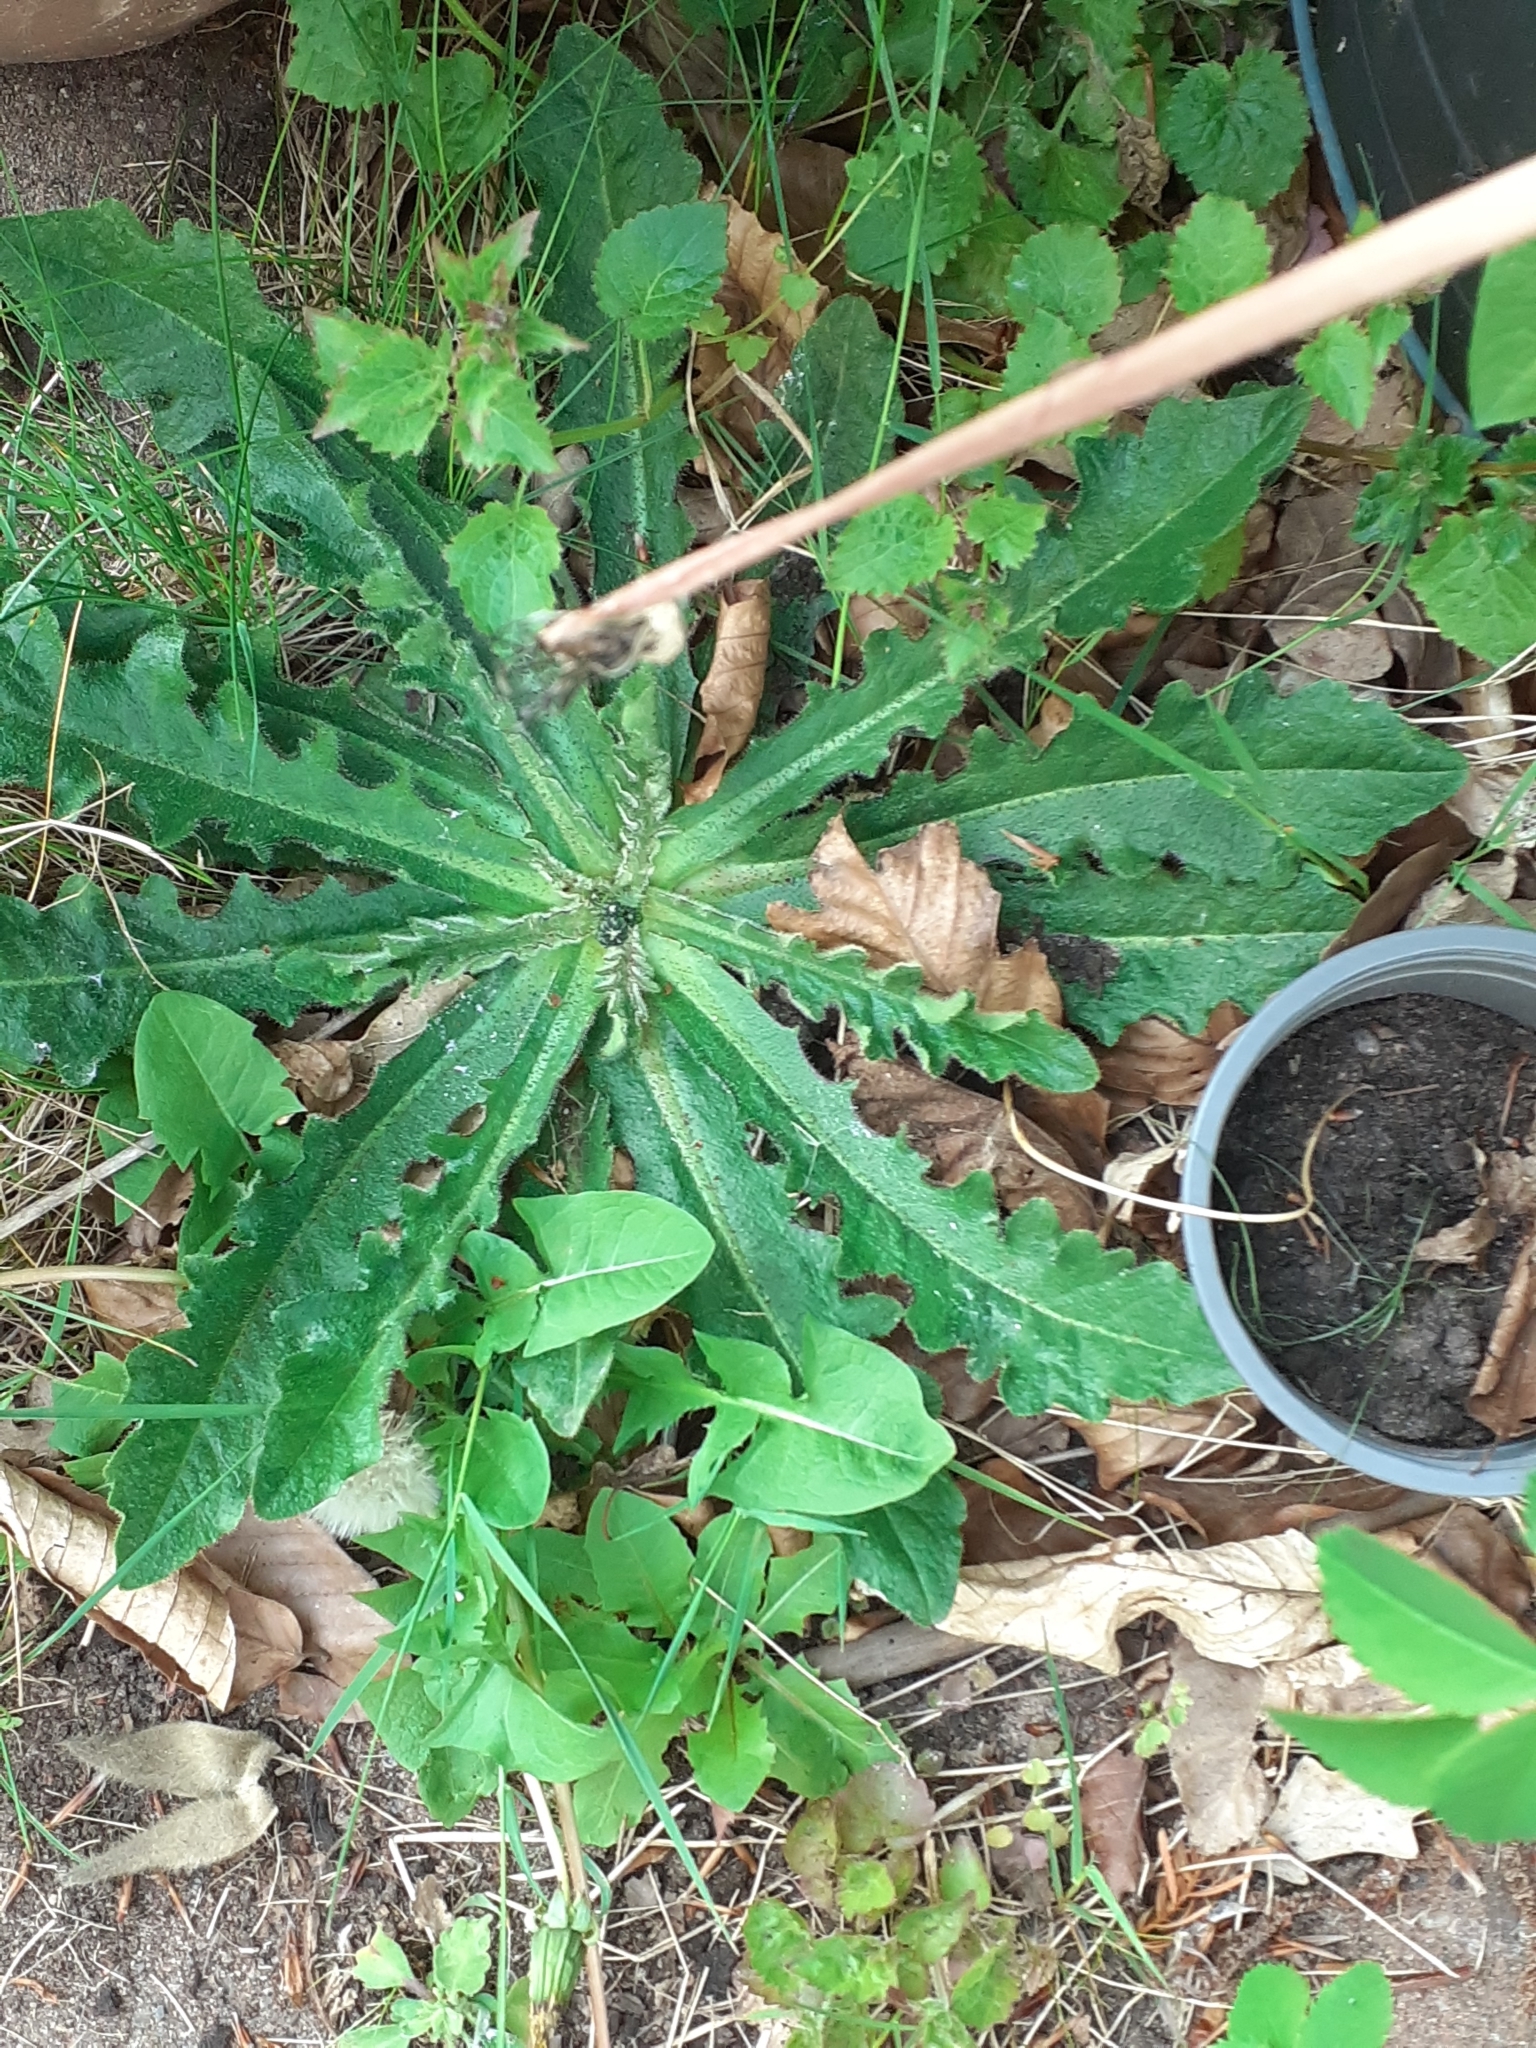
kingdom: Plantae
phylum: Tracheophyta
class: Magnoliopsida
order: Asterales
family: Asteraceae
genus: Hypochaeris
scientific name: Hypochaeris radicata
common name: Flatweed
